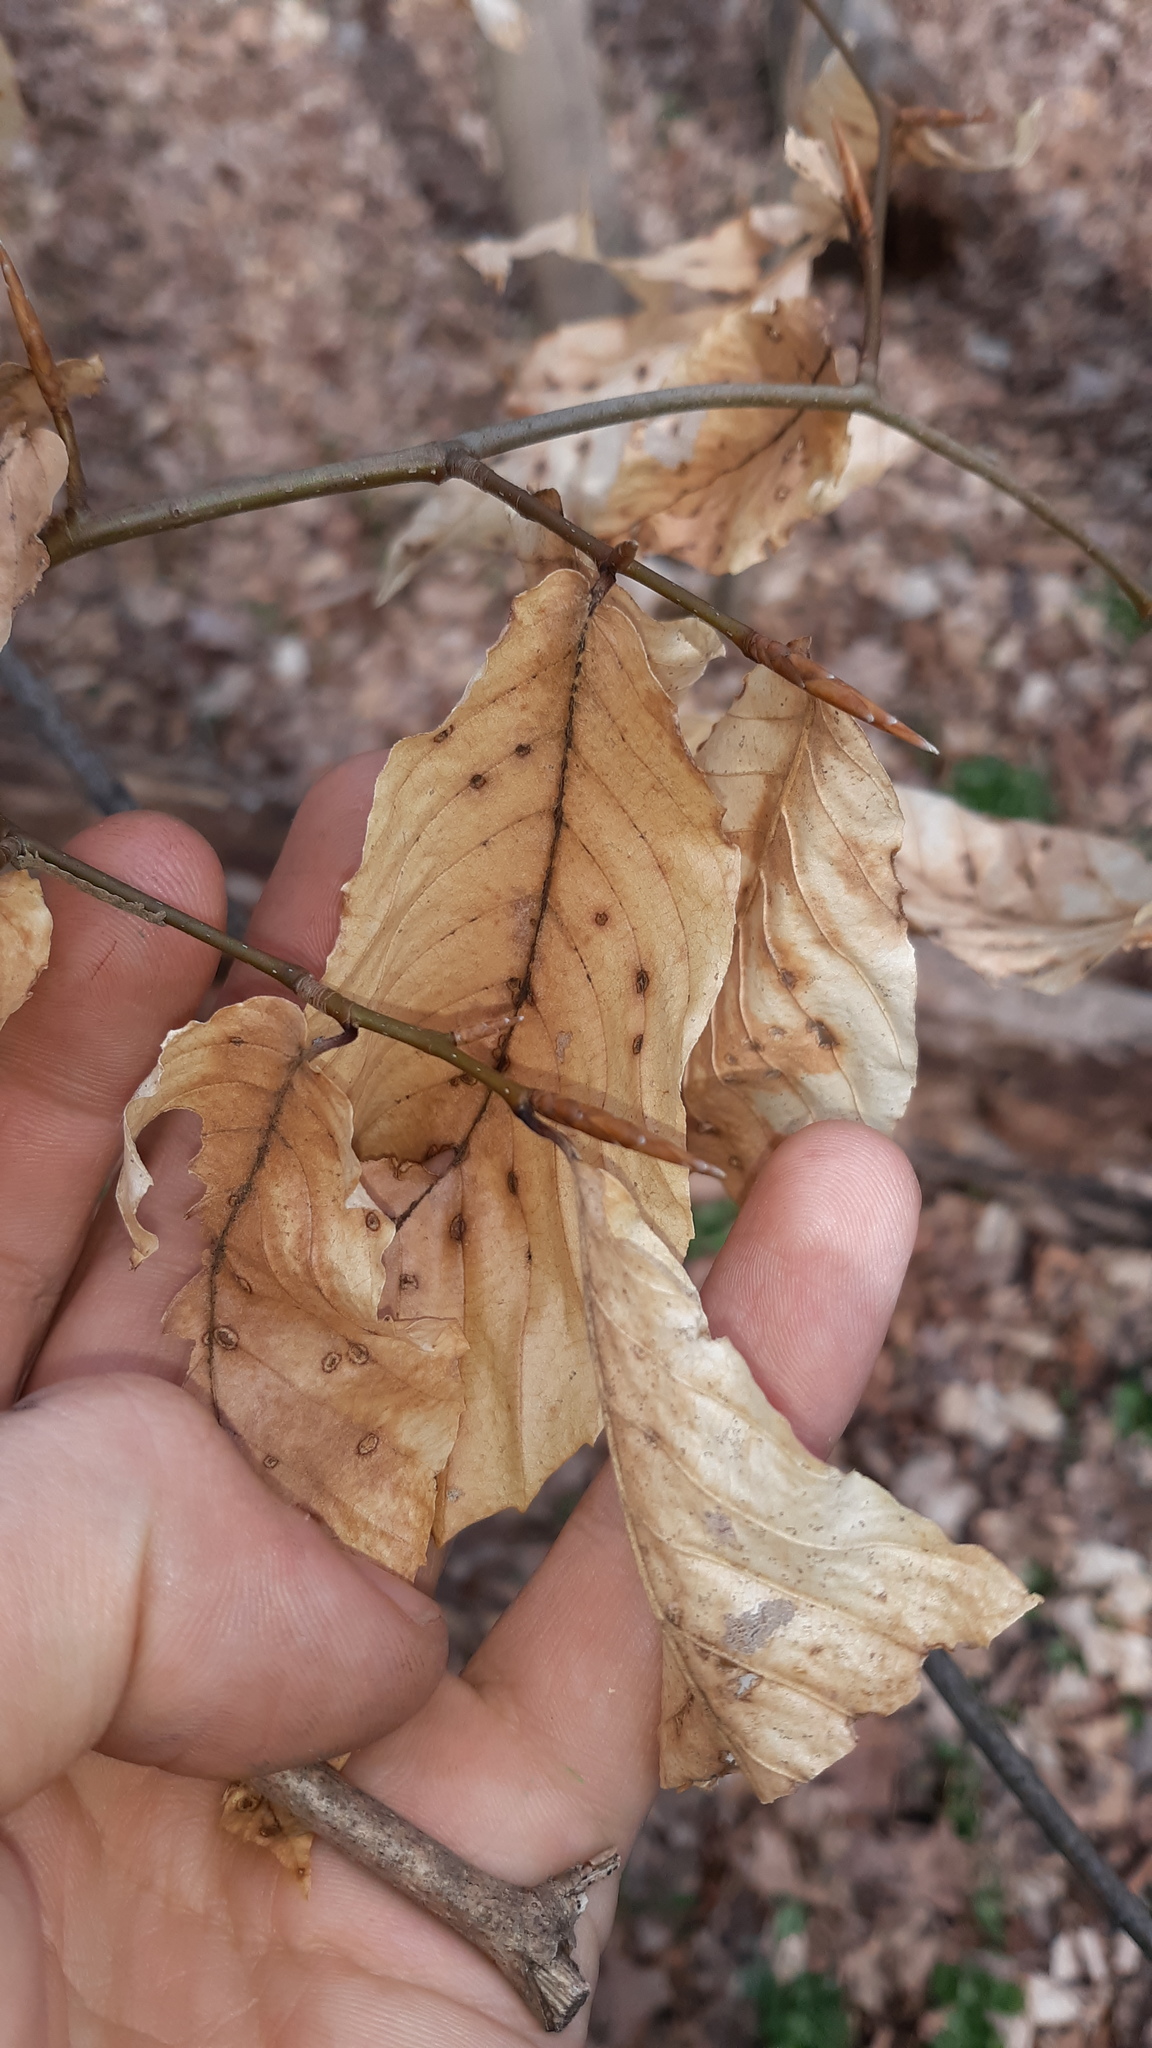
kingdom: Plantae
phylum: Tracheophyta
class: Magnoliopsida
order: Fagales
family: Fagaceae
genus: Fagus
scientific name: Fagus grandifolia
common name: American beech
